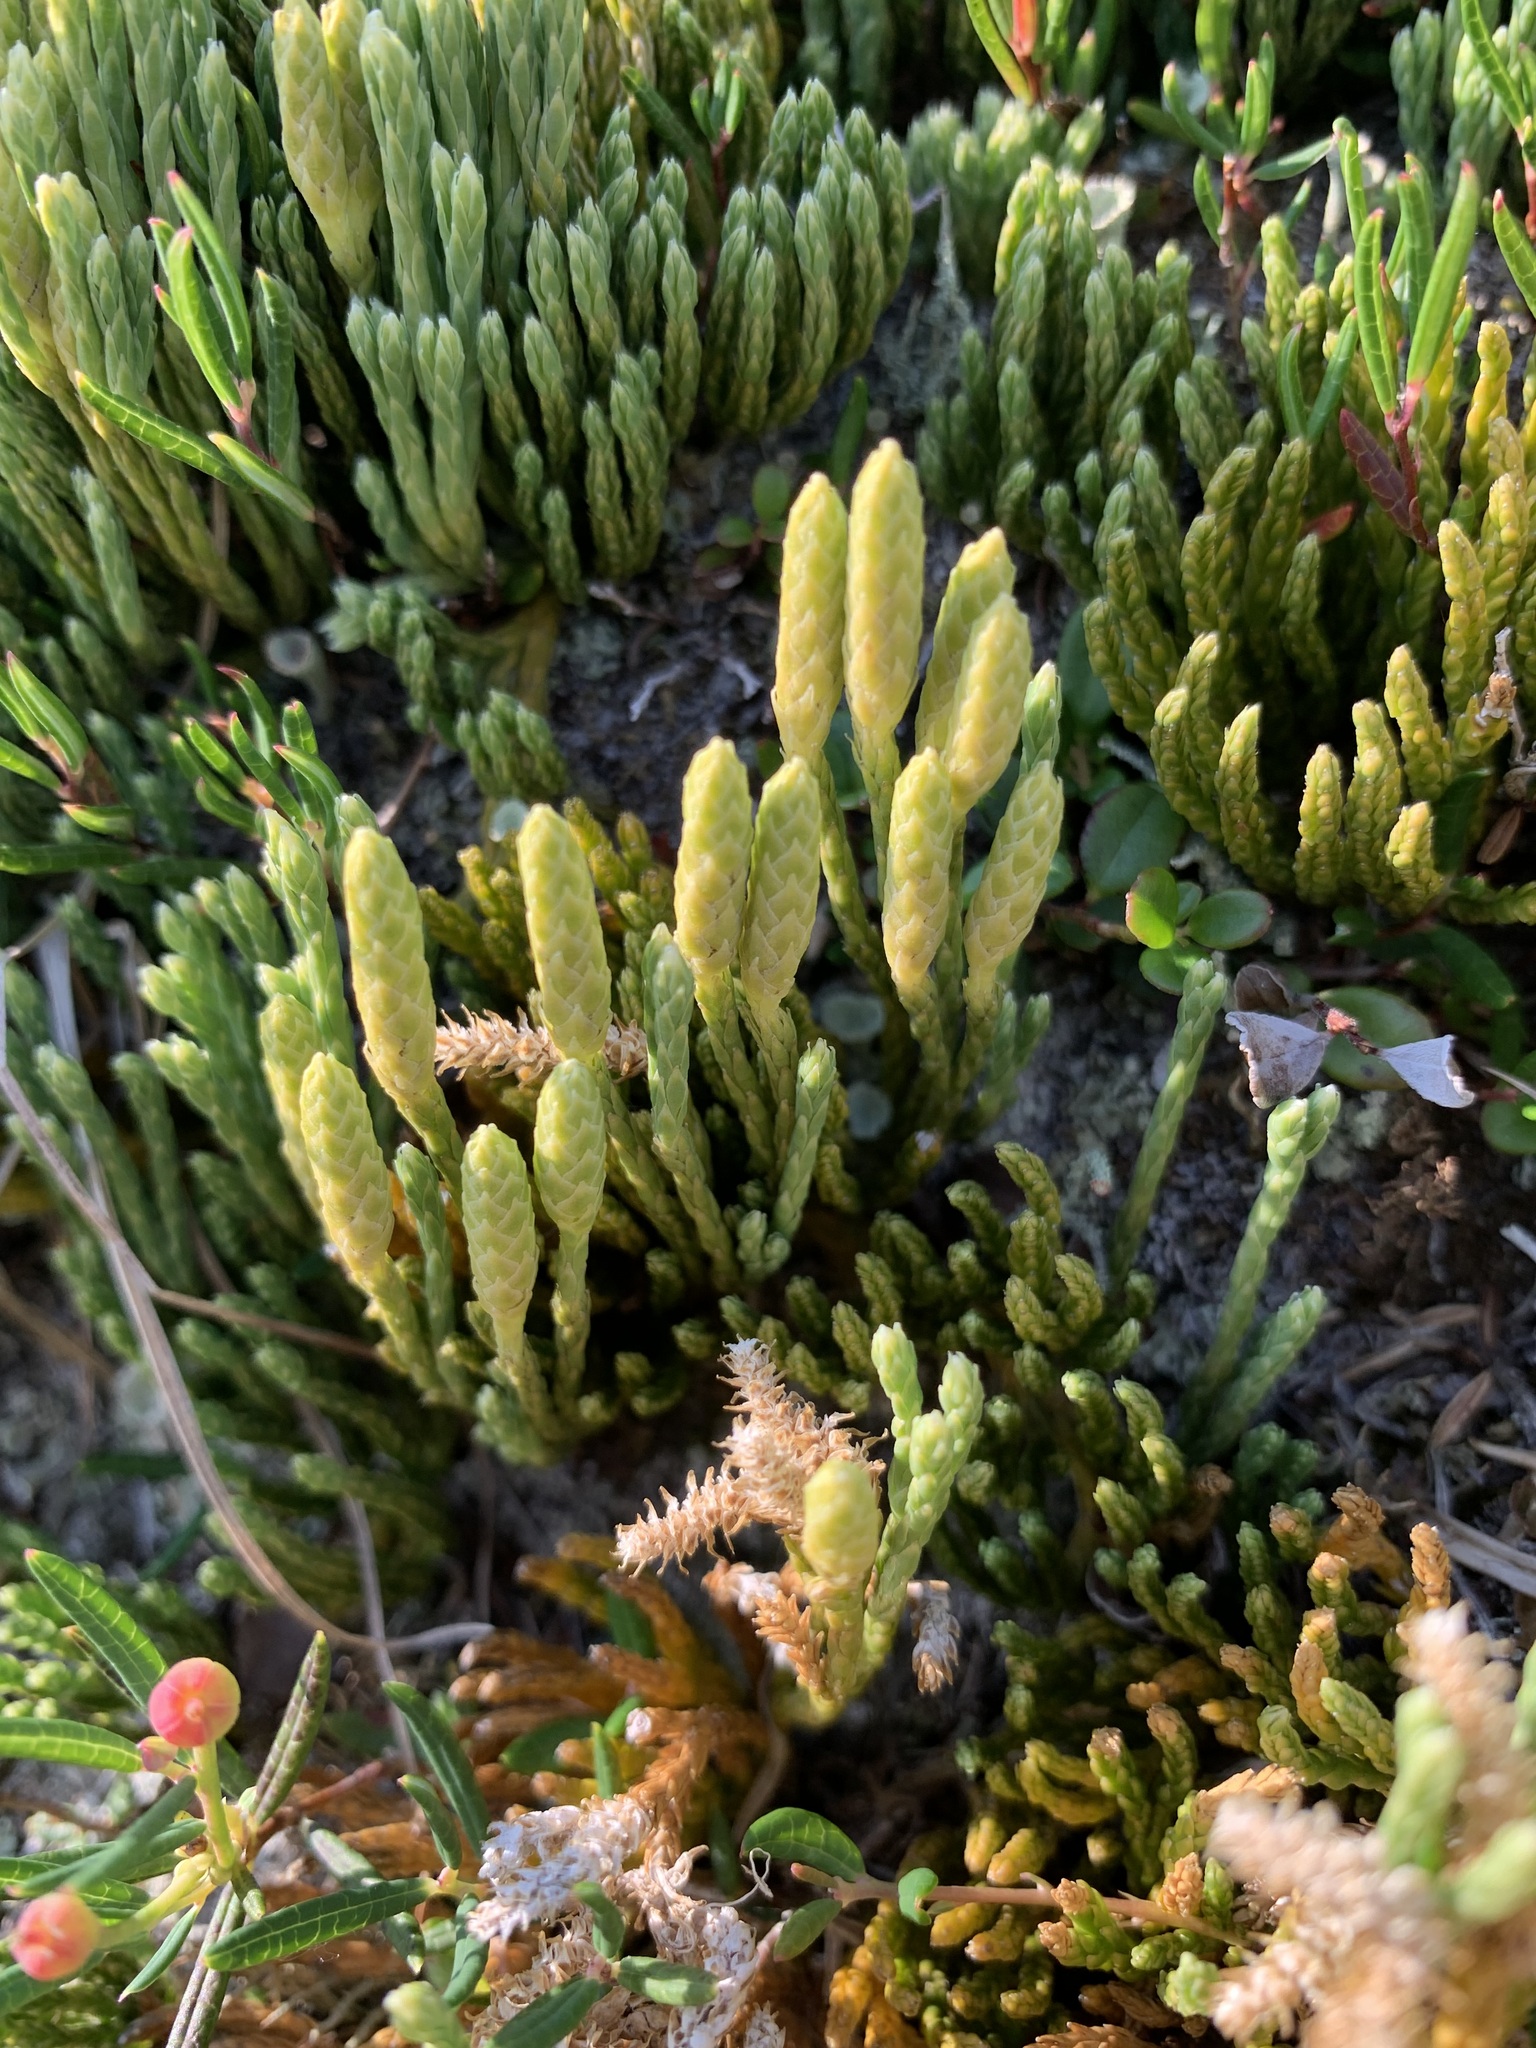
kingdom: Plantae
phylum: Tracheophyta
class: Lycopodiopsida
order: Lycopodiales
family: Lycopodiaceae
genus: Diphasiastrum
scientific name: Diphasiastrum alpinum
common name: Alpine clubmoss
